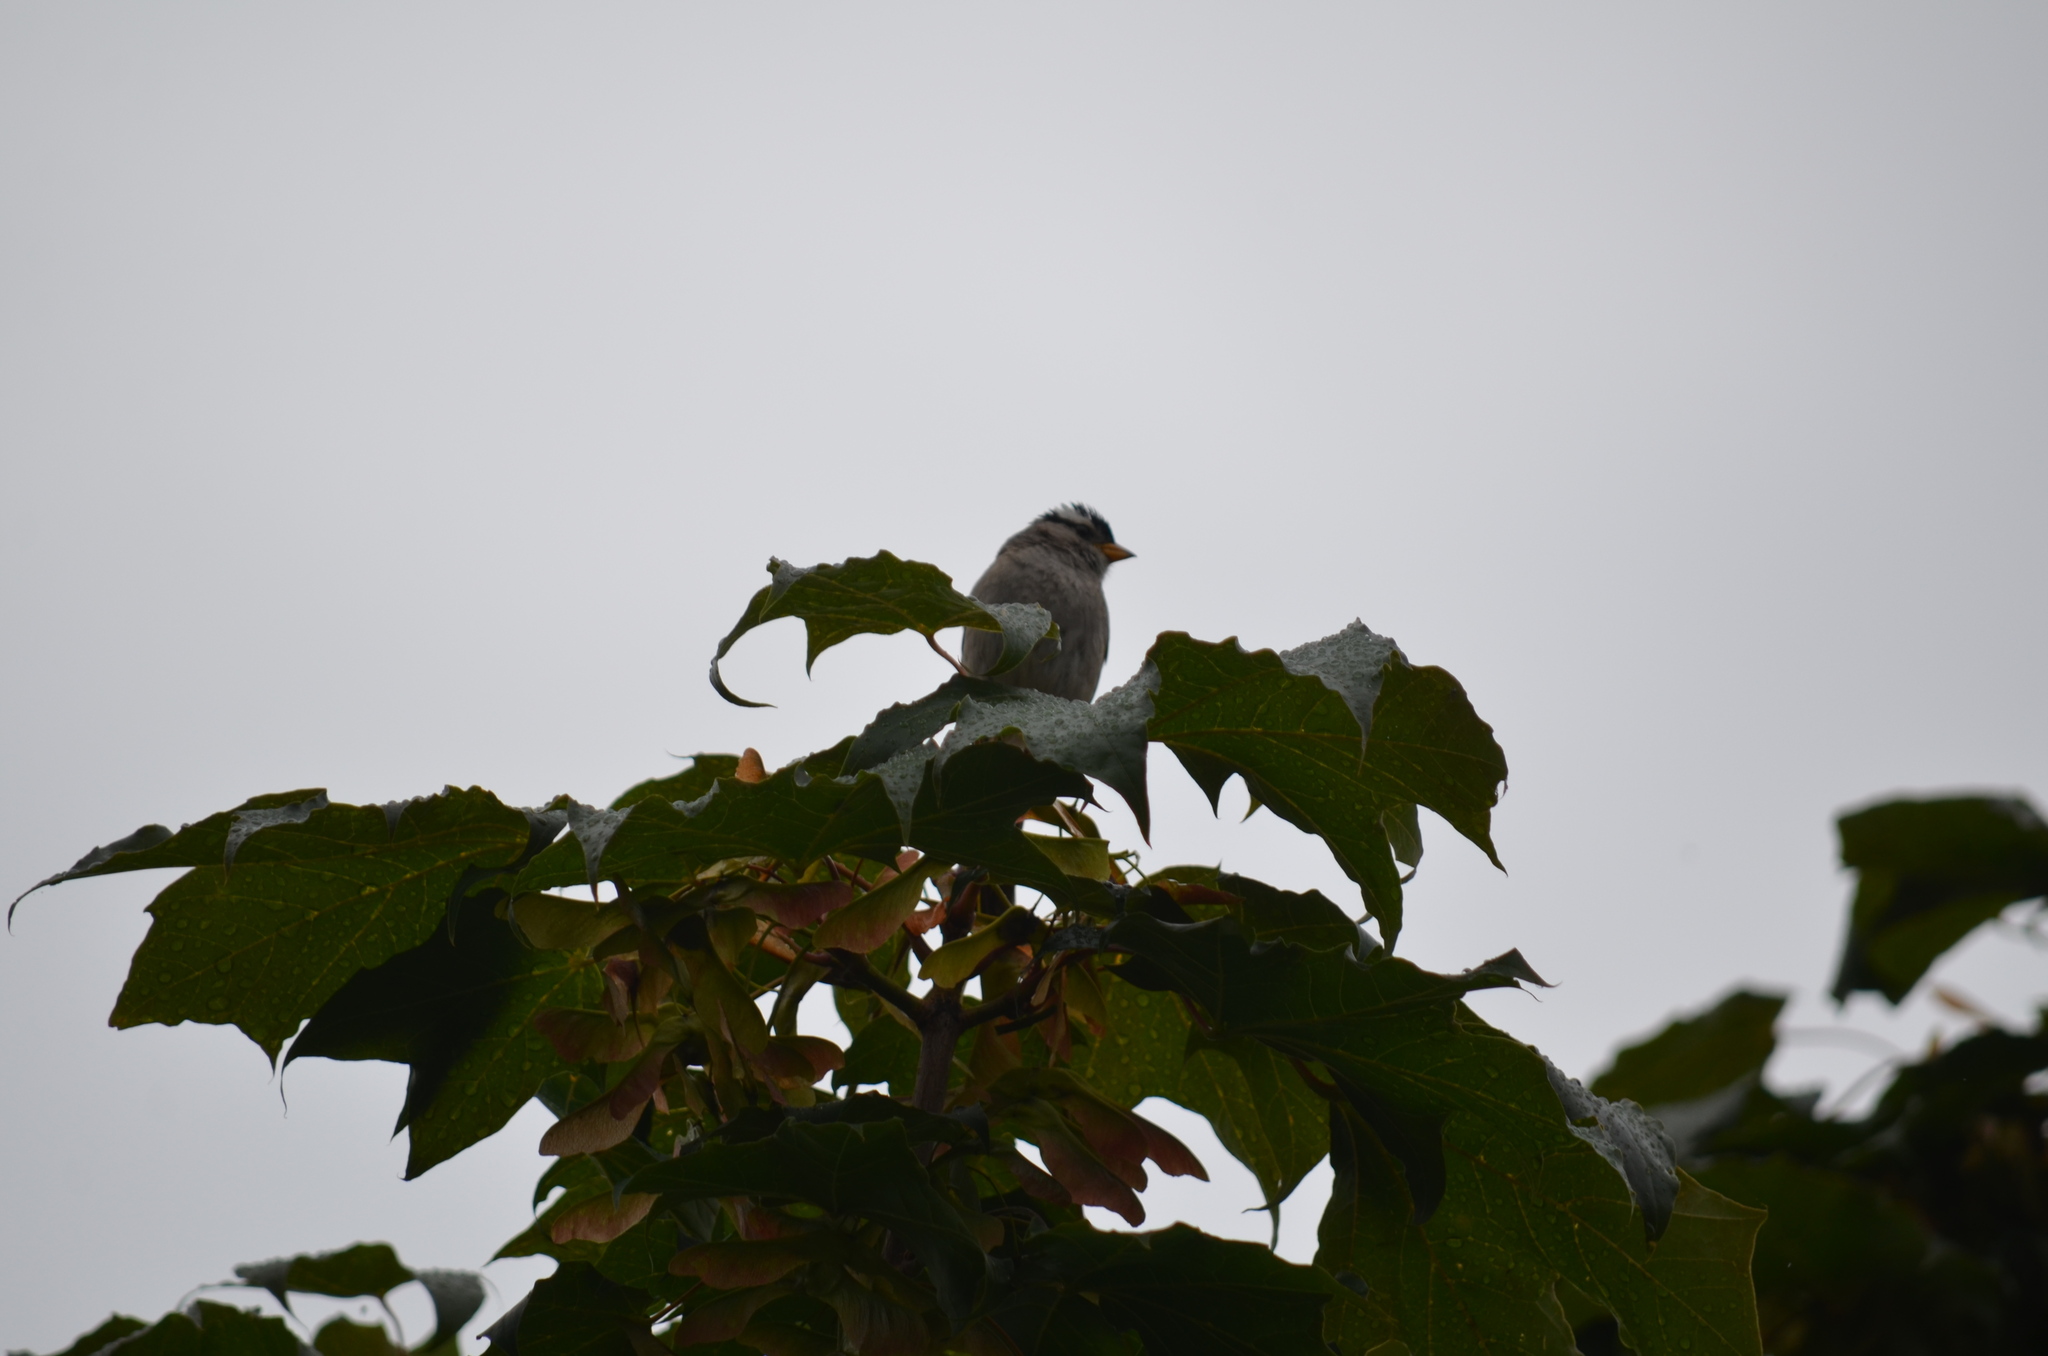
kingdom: Animalia
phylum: Chordata
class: Aves
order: Passeriformes
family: Passerellidae
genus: Zonotrichia
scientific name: Zonotrichia leucophrys
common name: White-crowned sparrow
